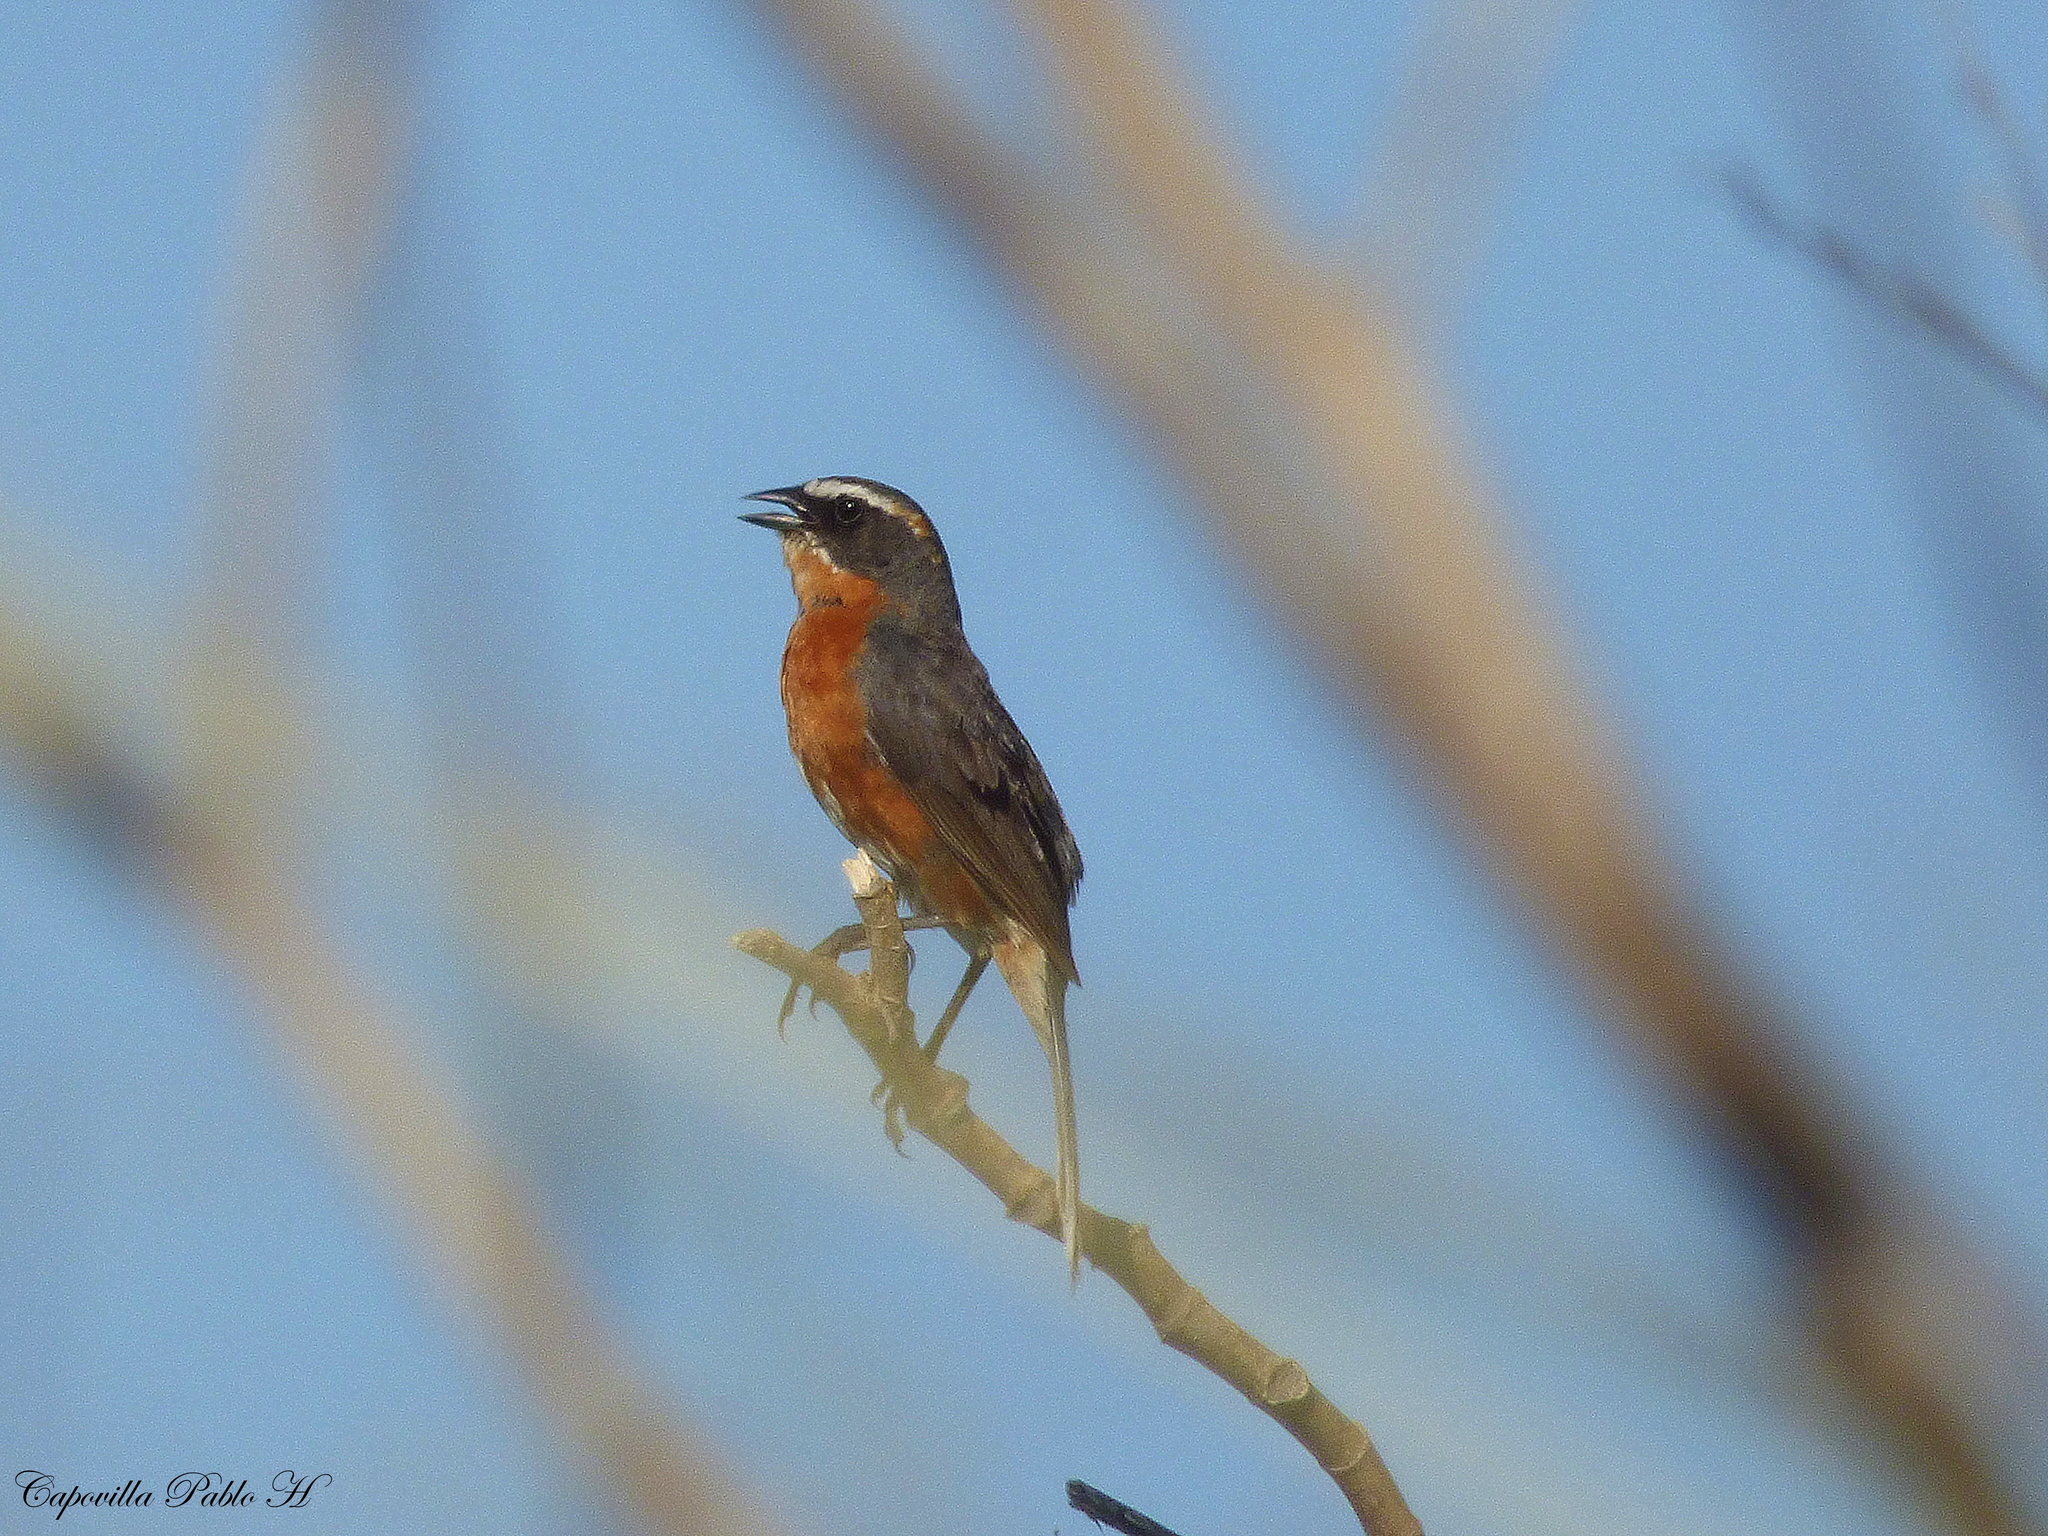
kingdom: Animalia
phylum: Chordata
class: Aves
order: Passeriformes
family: Thraupidae
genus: Poospiza
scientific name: Poospiza nigrorufa
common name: Black-and-rufous warbling finch
